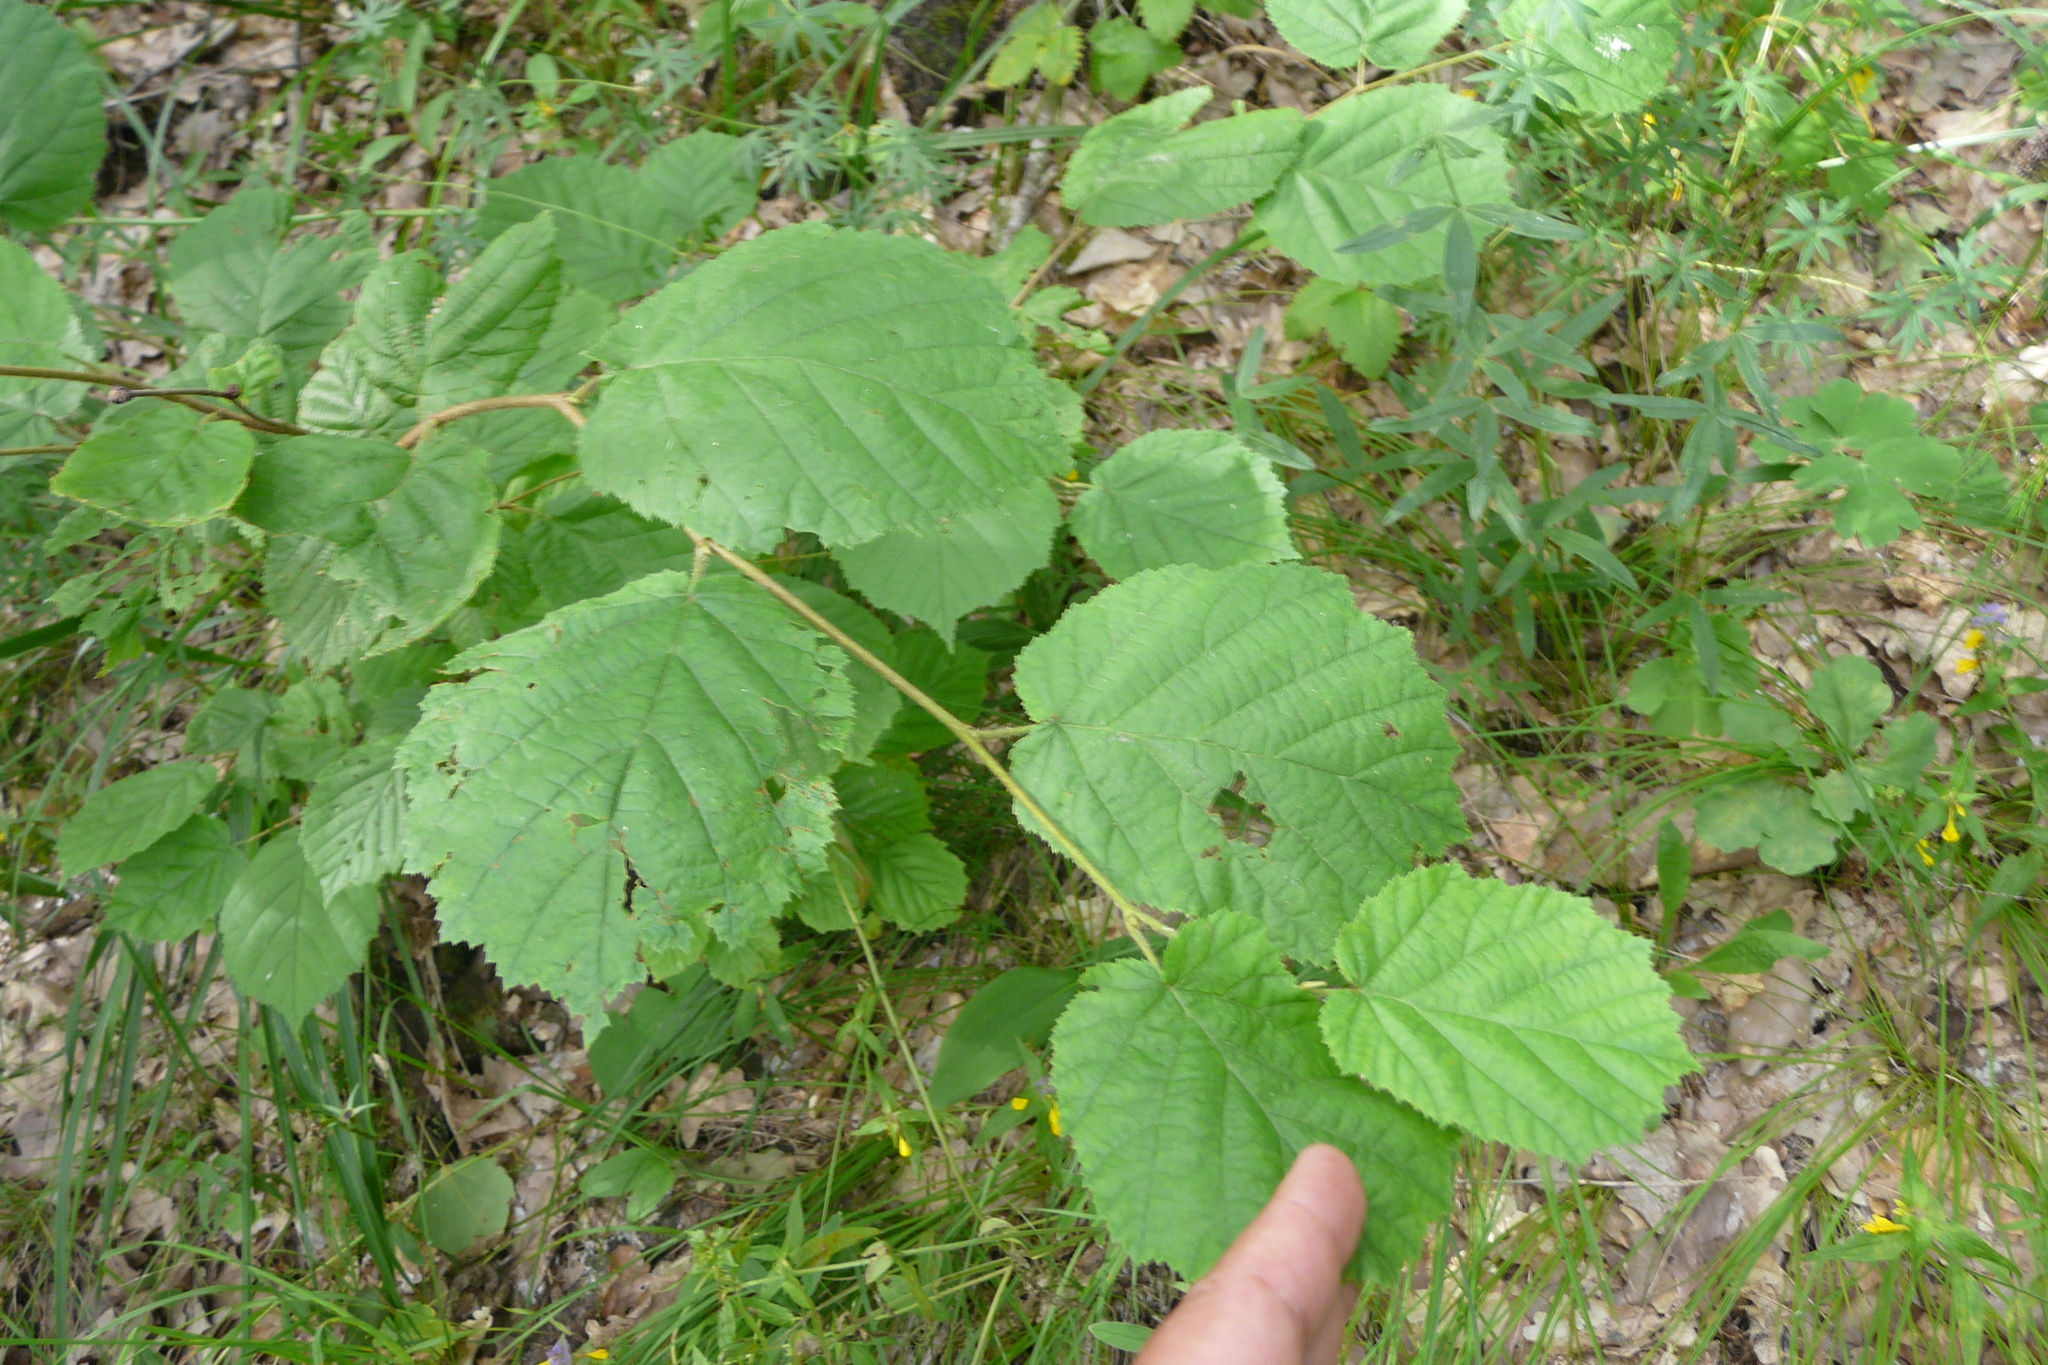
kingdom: Plantae
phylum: Tracheophyta
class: Magnoliopsida
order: Fagales
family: Betulaceae
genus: Corylus
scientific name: Corylus avellana
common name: European hazel
